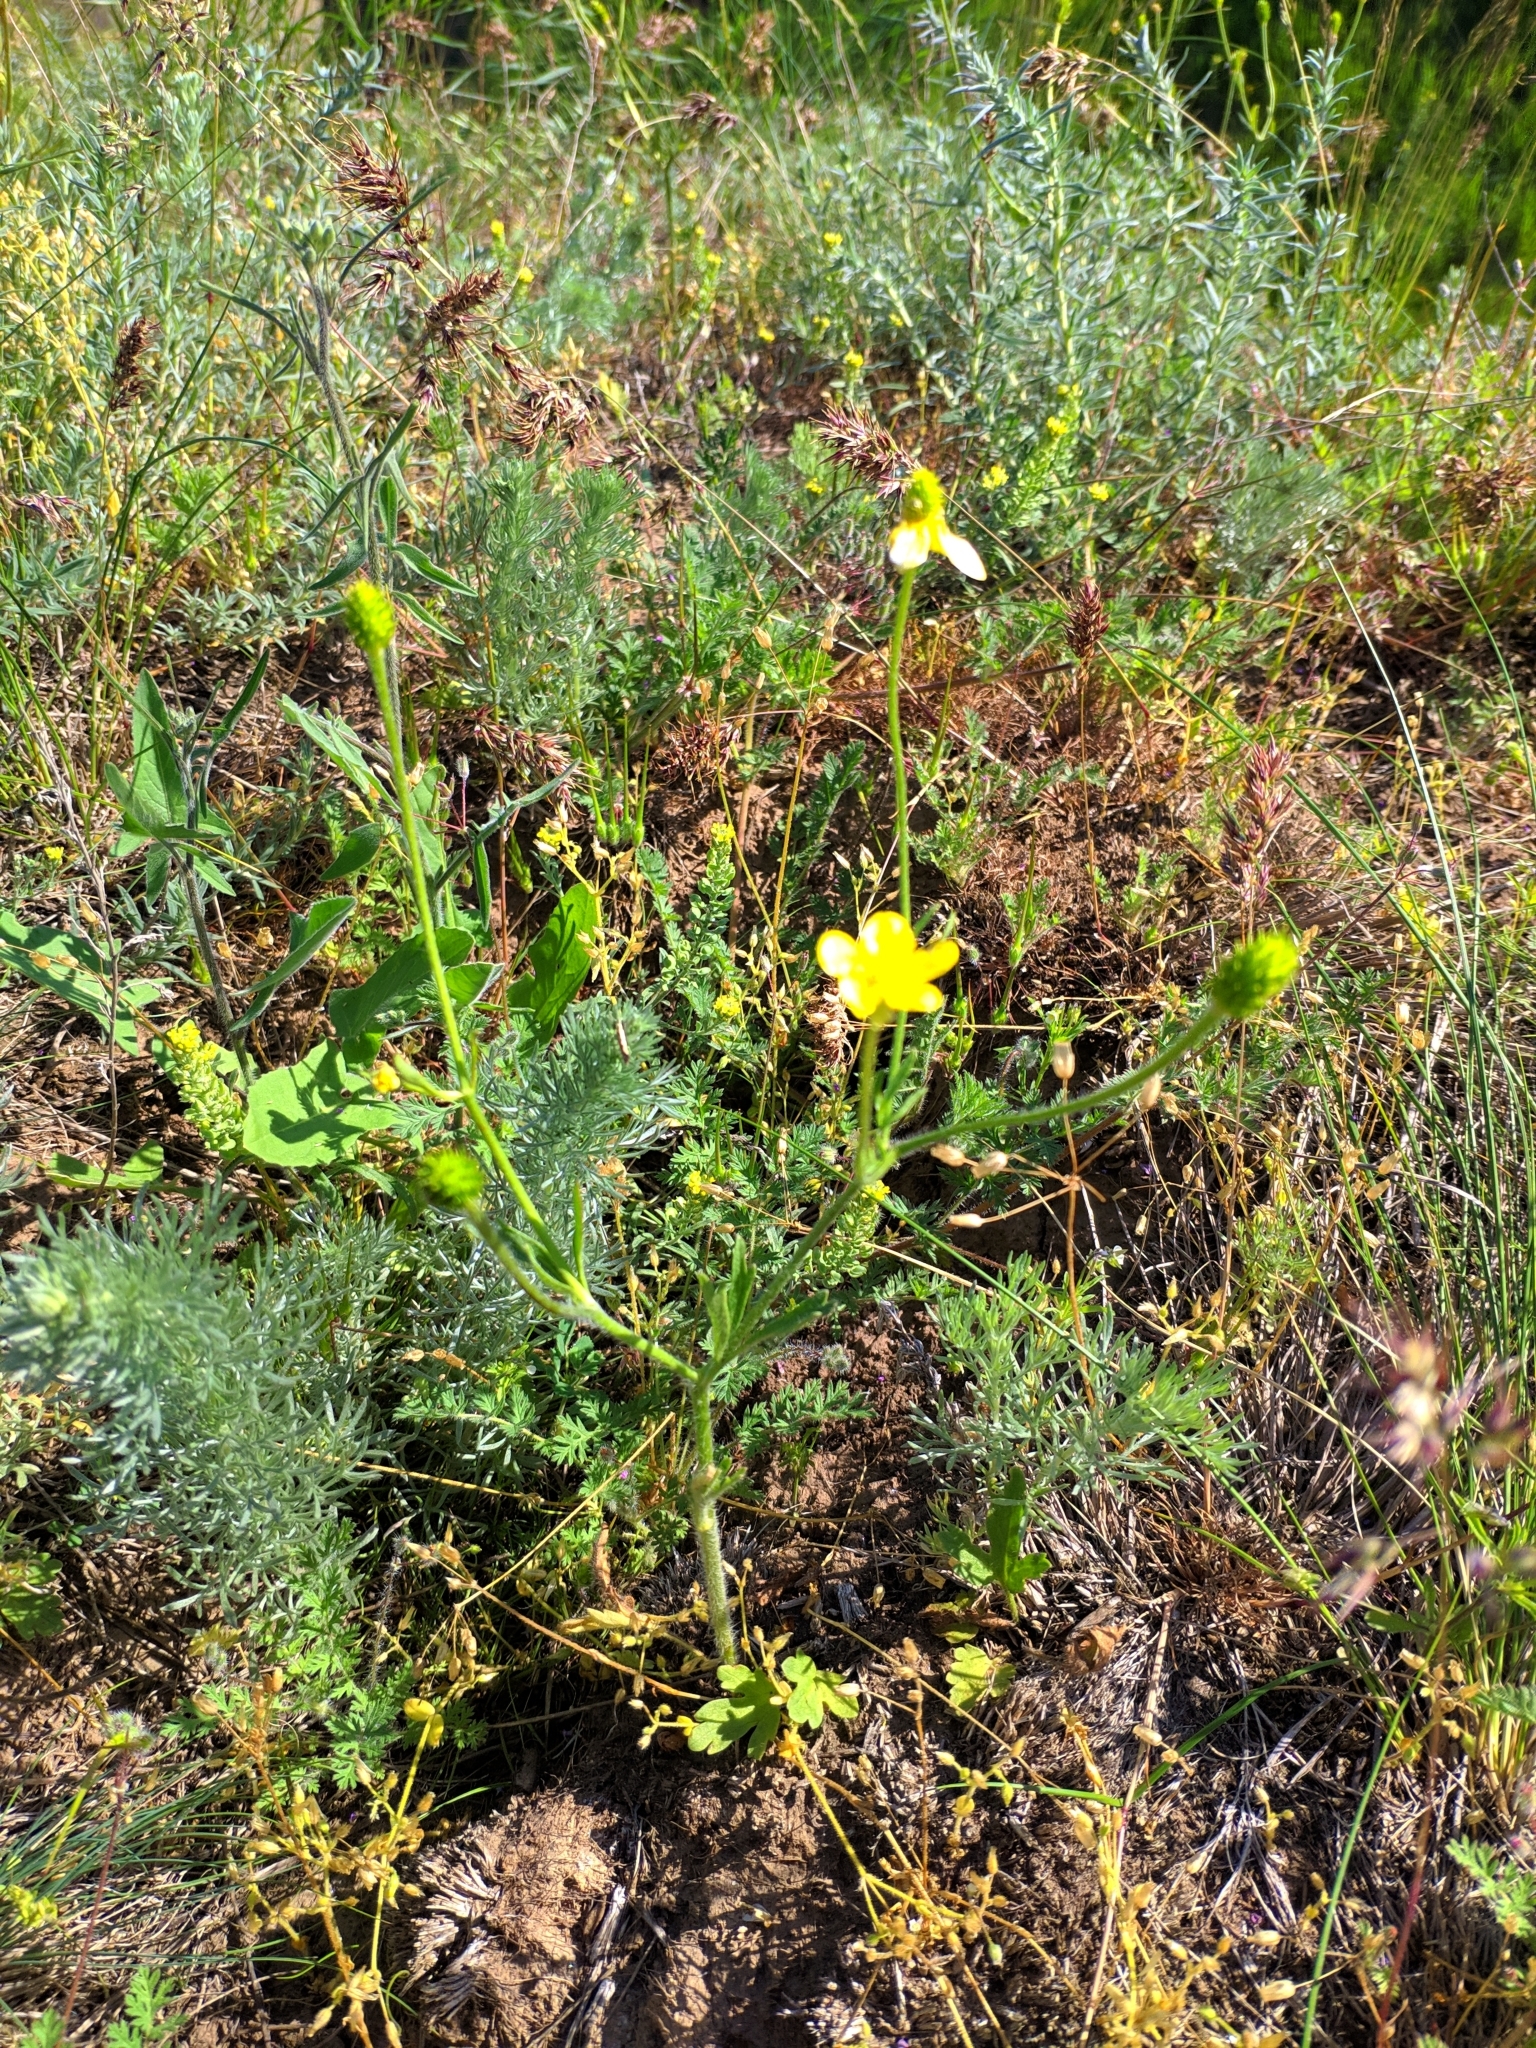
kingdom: Plantae
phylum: Tracheophyta
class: Magnoliopsida
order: Ranunculales
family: Ranunculaceae
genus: Ranunculus
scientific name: Ranunculus oxyspermus
